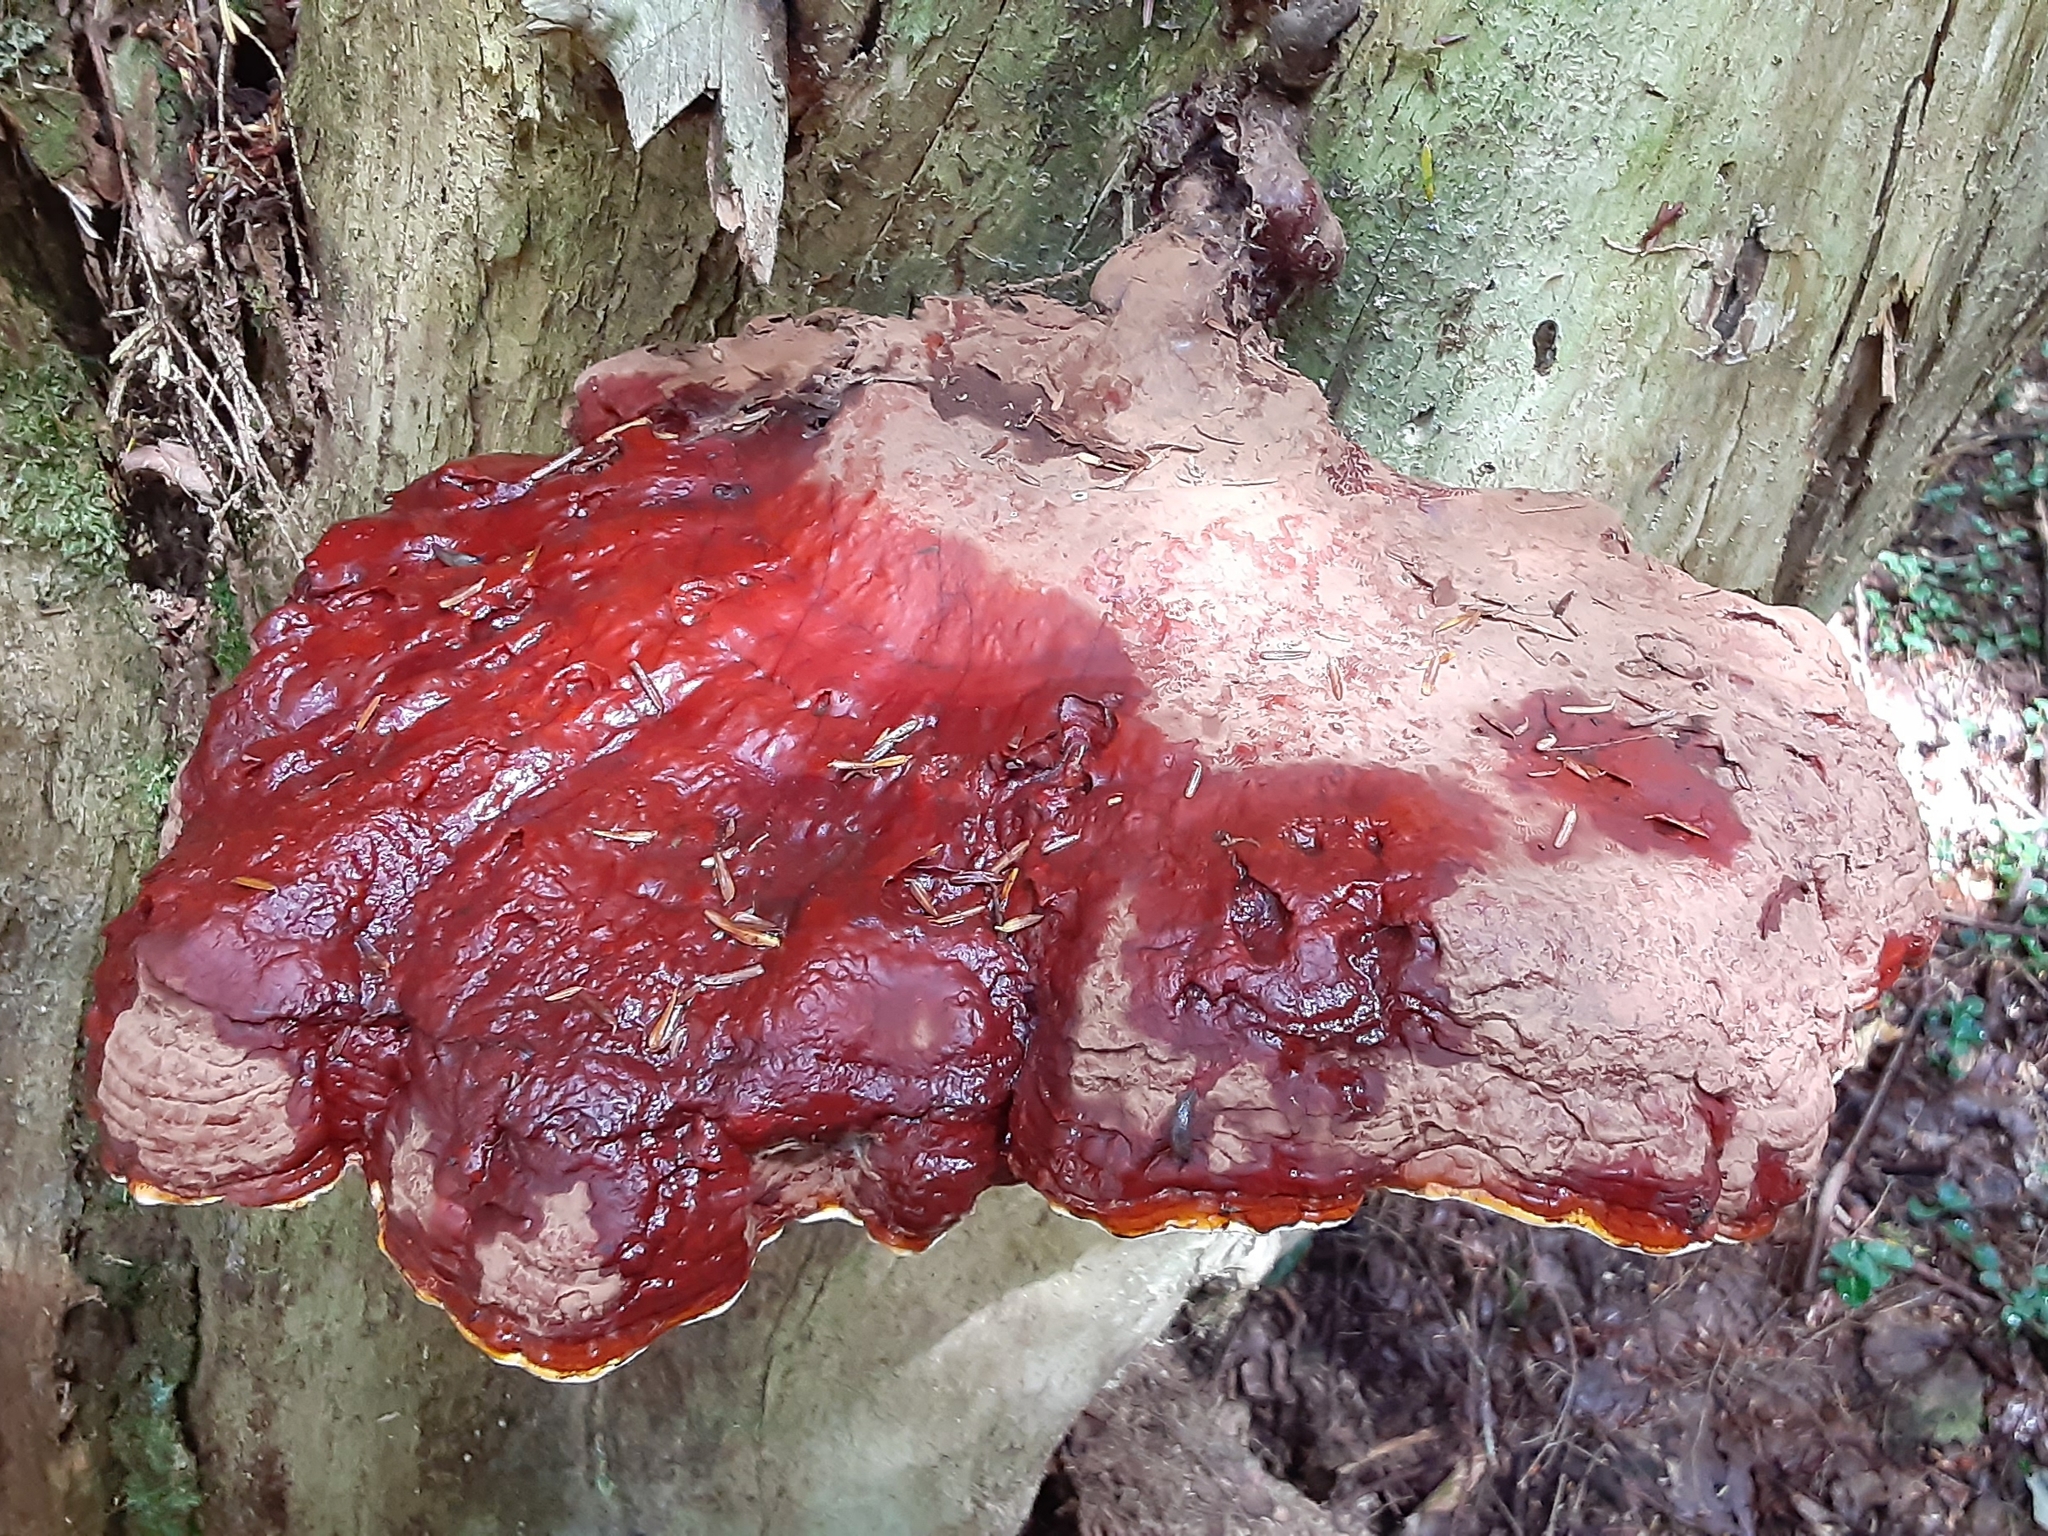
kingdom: Fungi
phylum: Basidiomycota
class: Agaricomycetes
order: Polyporales
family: Polyporaceae
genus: Ganoderma
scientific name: Ganoderma tsugae
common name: Hemlock varnish shelf
